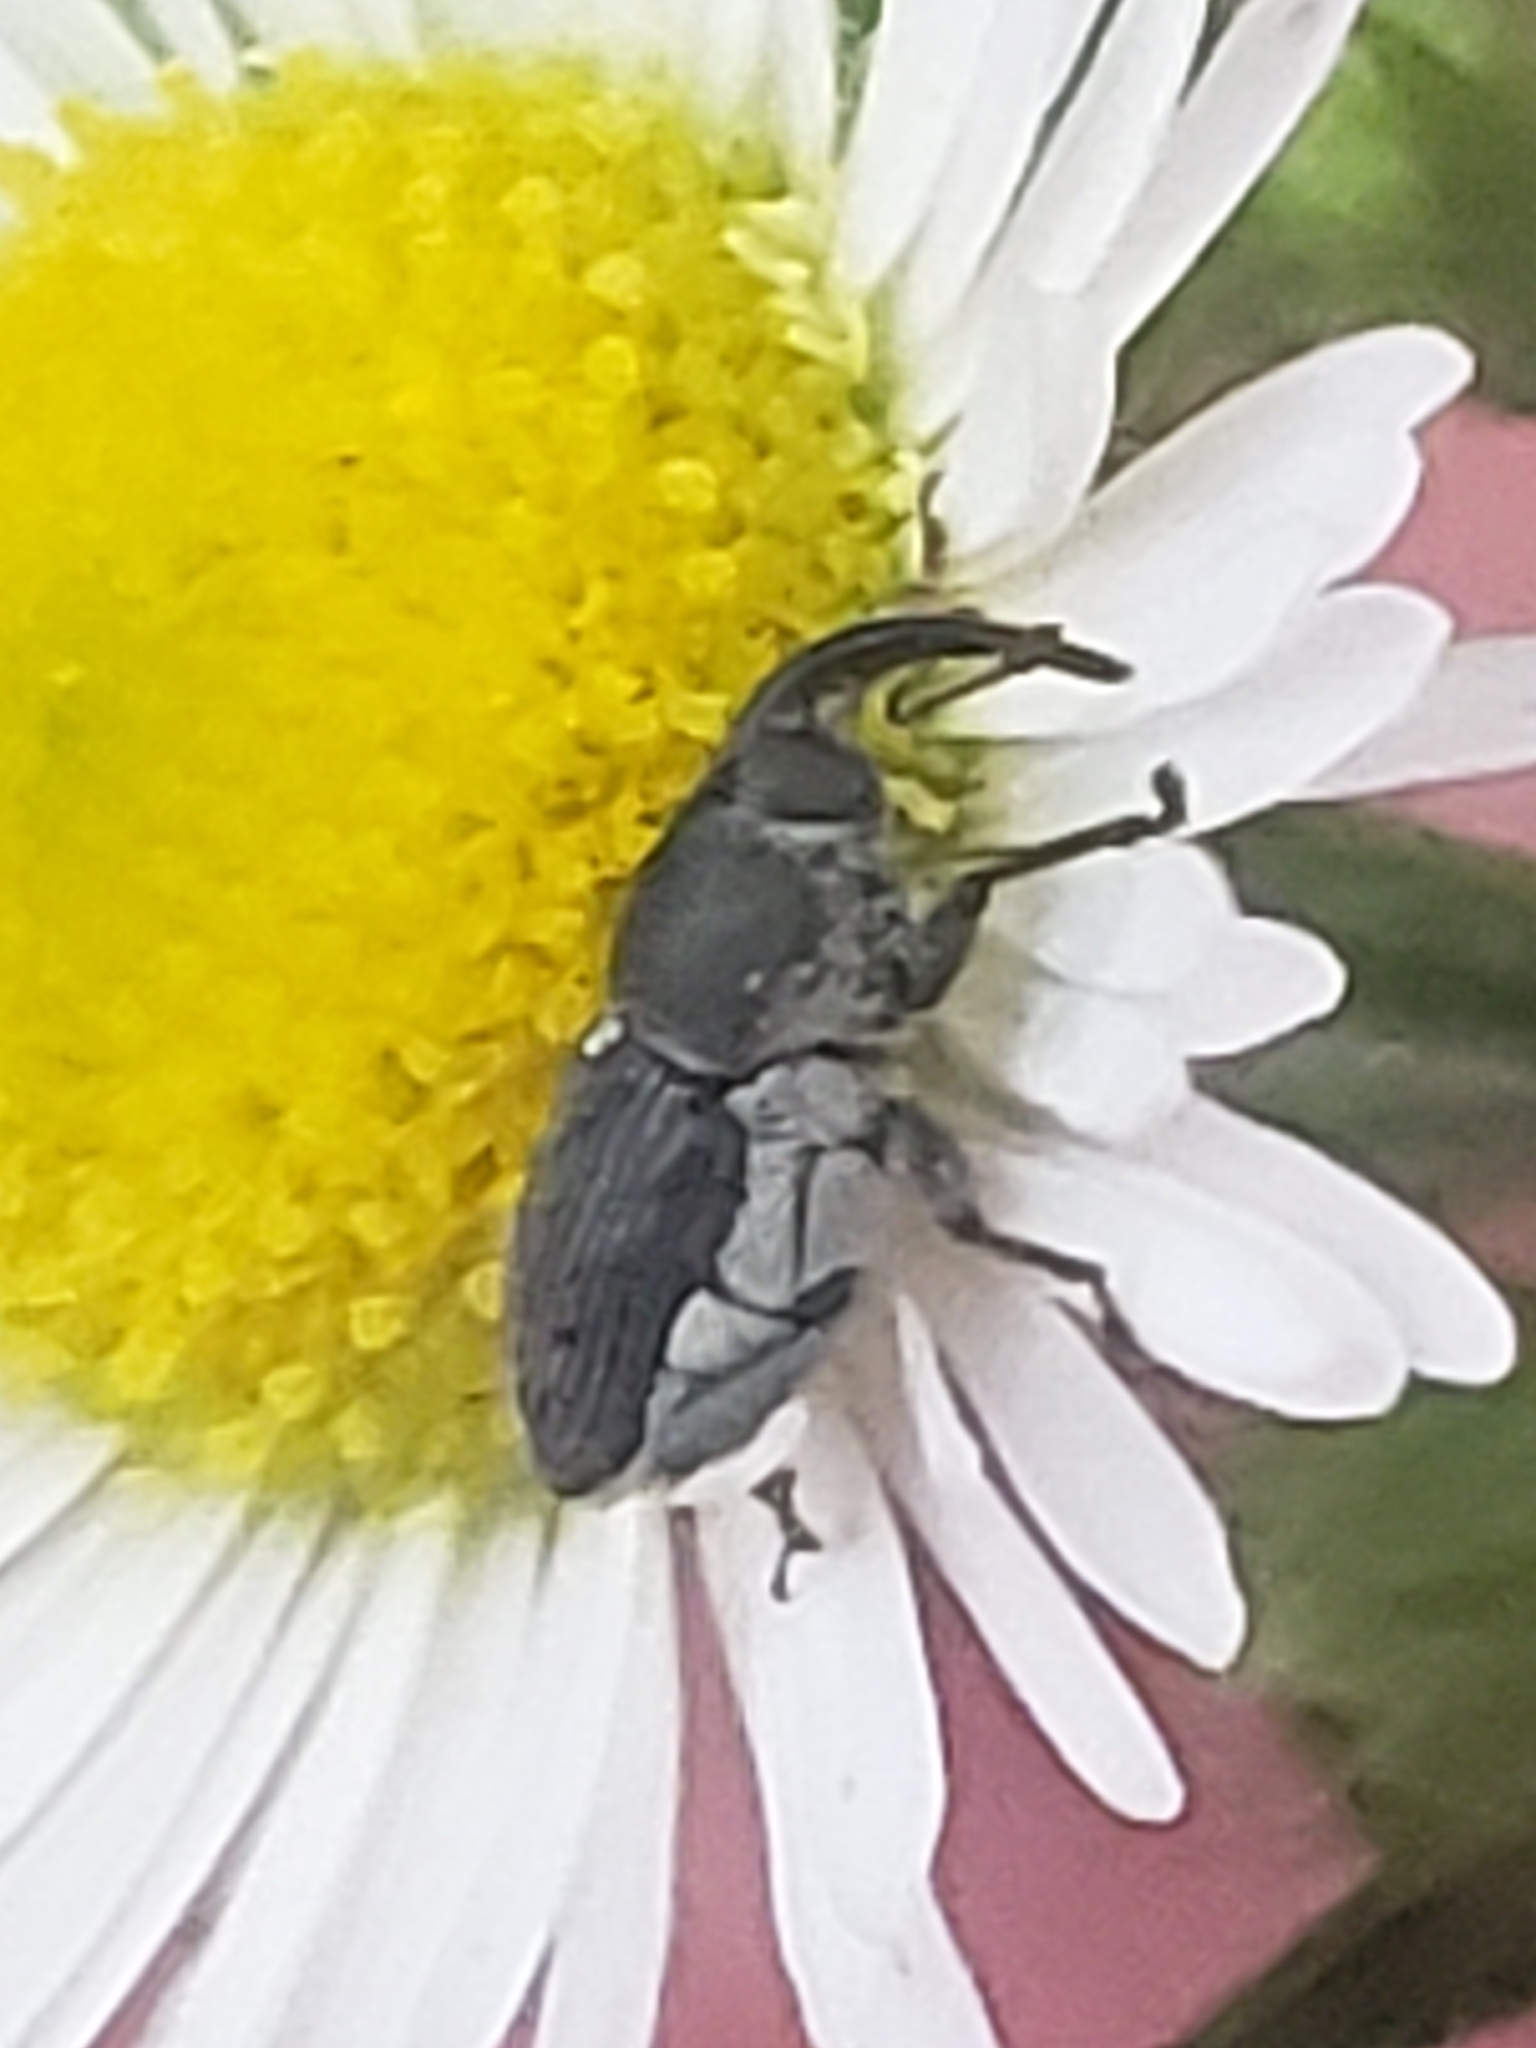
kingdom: Animalia
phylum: Arthropoda
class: Insecta
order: Coleoptera
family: Curculionidae
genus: Odontocorynus
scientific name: Odontocorynus salebrosus
